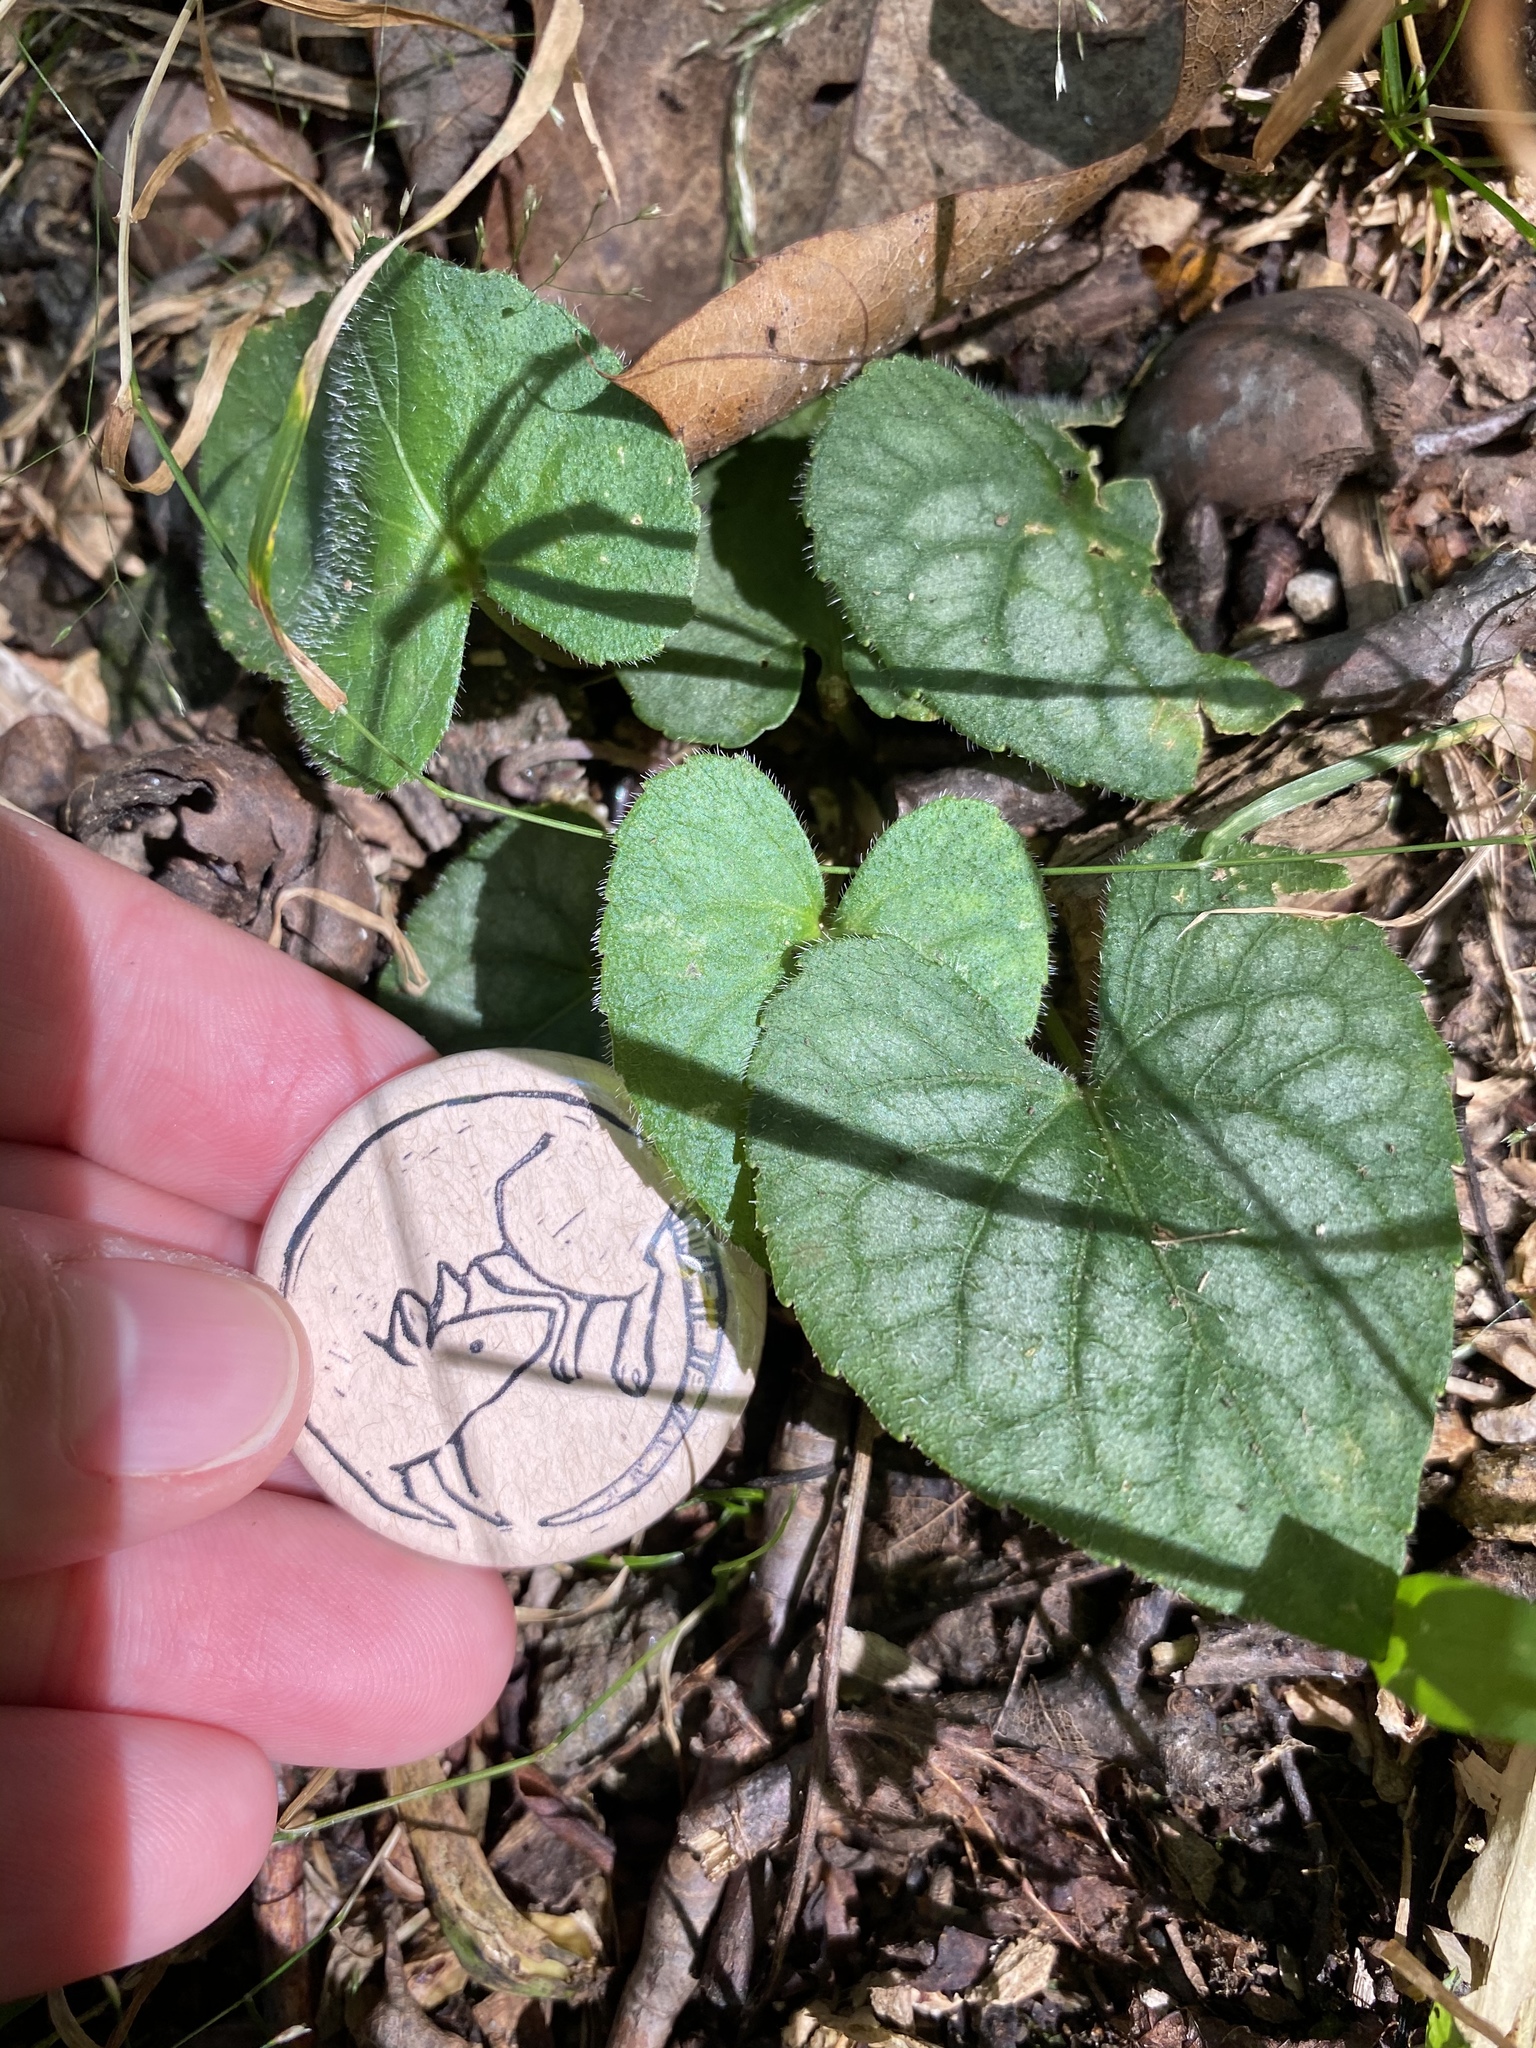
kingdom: Plantae
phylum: Tracheophyta
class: Magnoliopsida
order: Malpighiales
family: Violaceae
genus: Viola
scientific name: Viola hirsutula
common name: Southern wood violet
